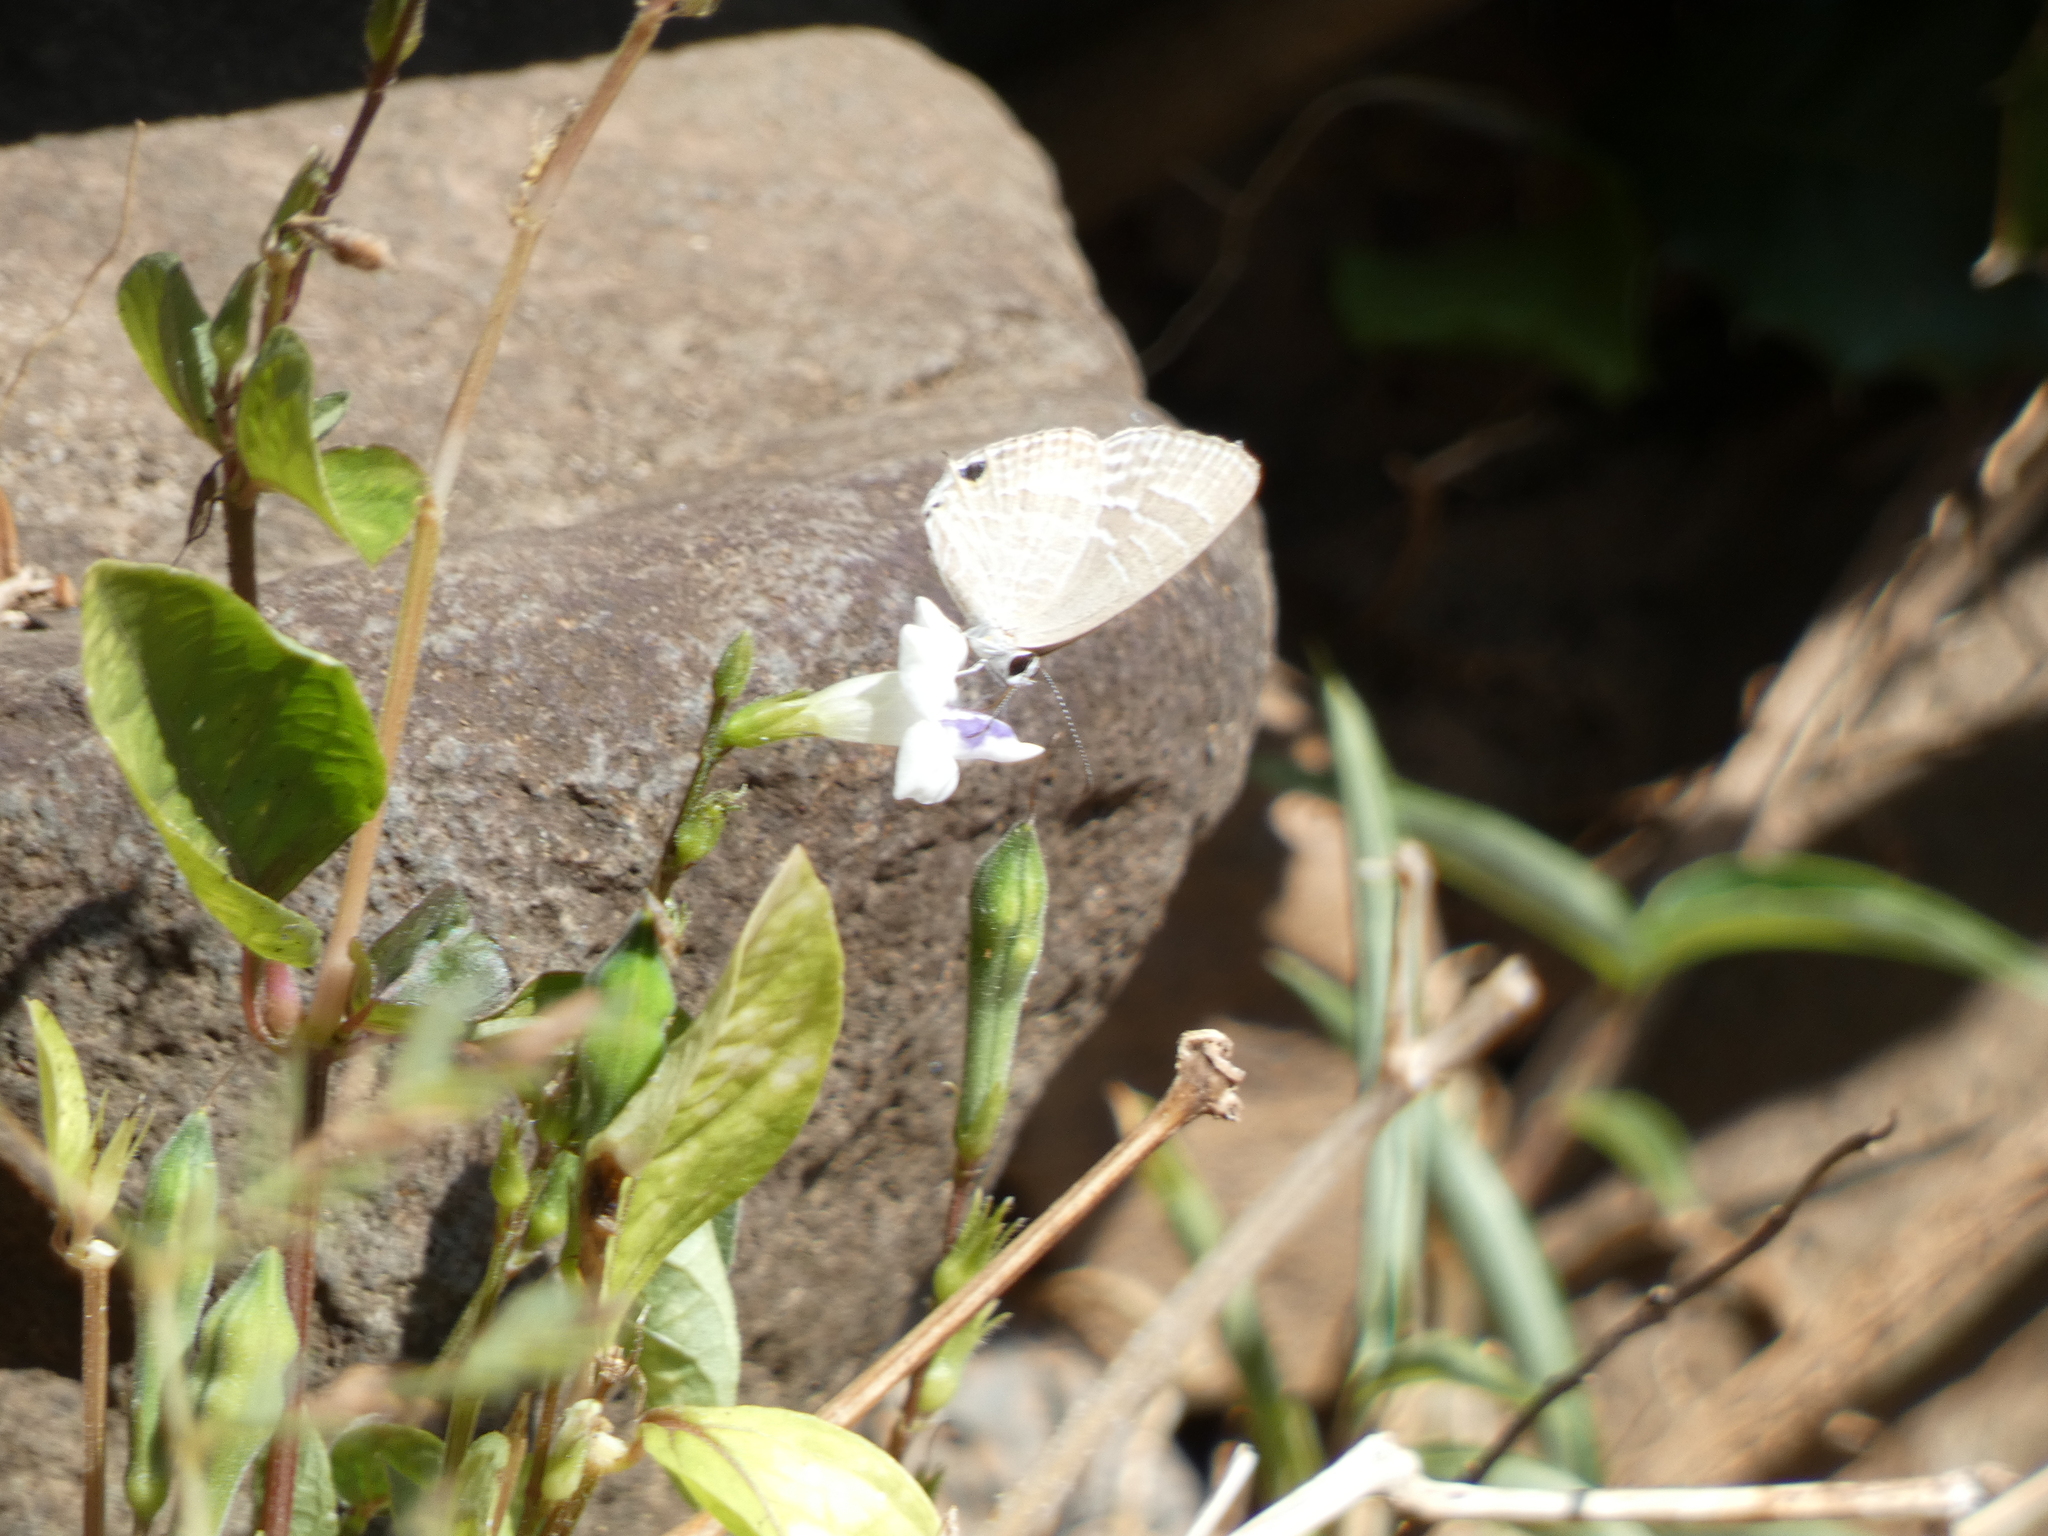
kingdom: Plantae
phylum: Tracheophyta
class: Magnoliopsida
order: Lamiales
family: Acanthaceae
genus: Asystasia
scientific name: Asystasia intrusa
